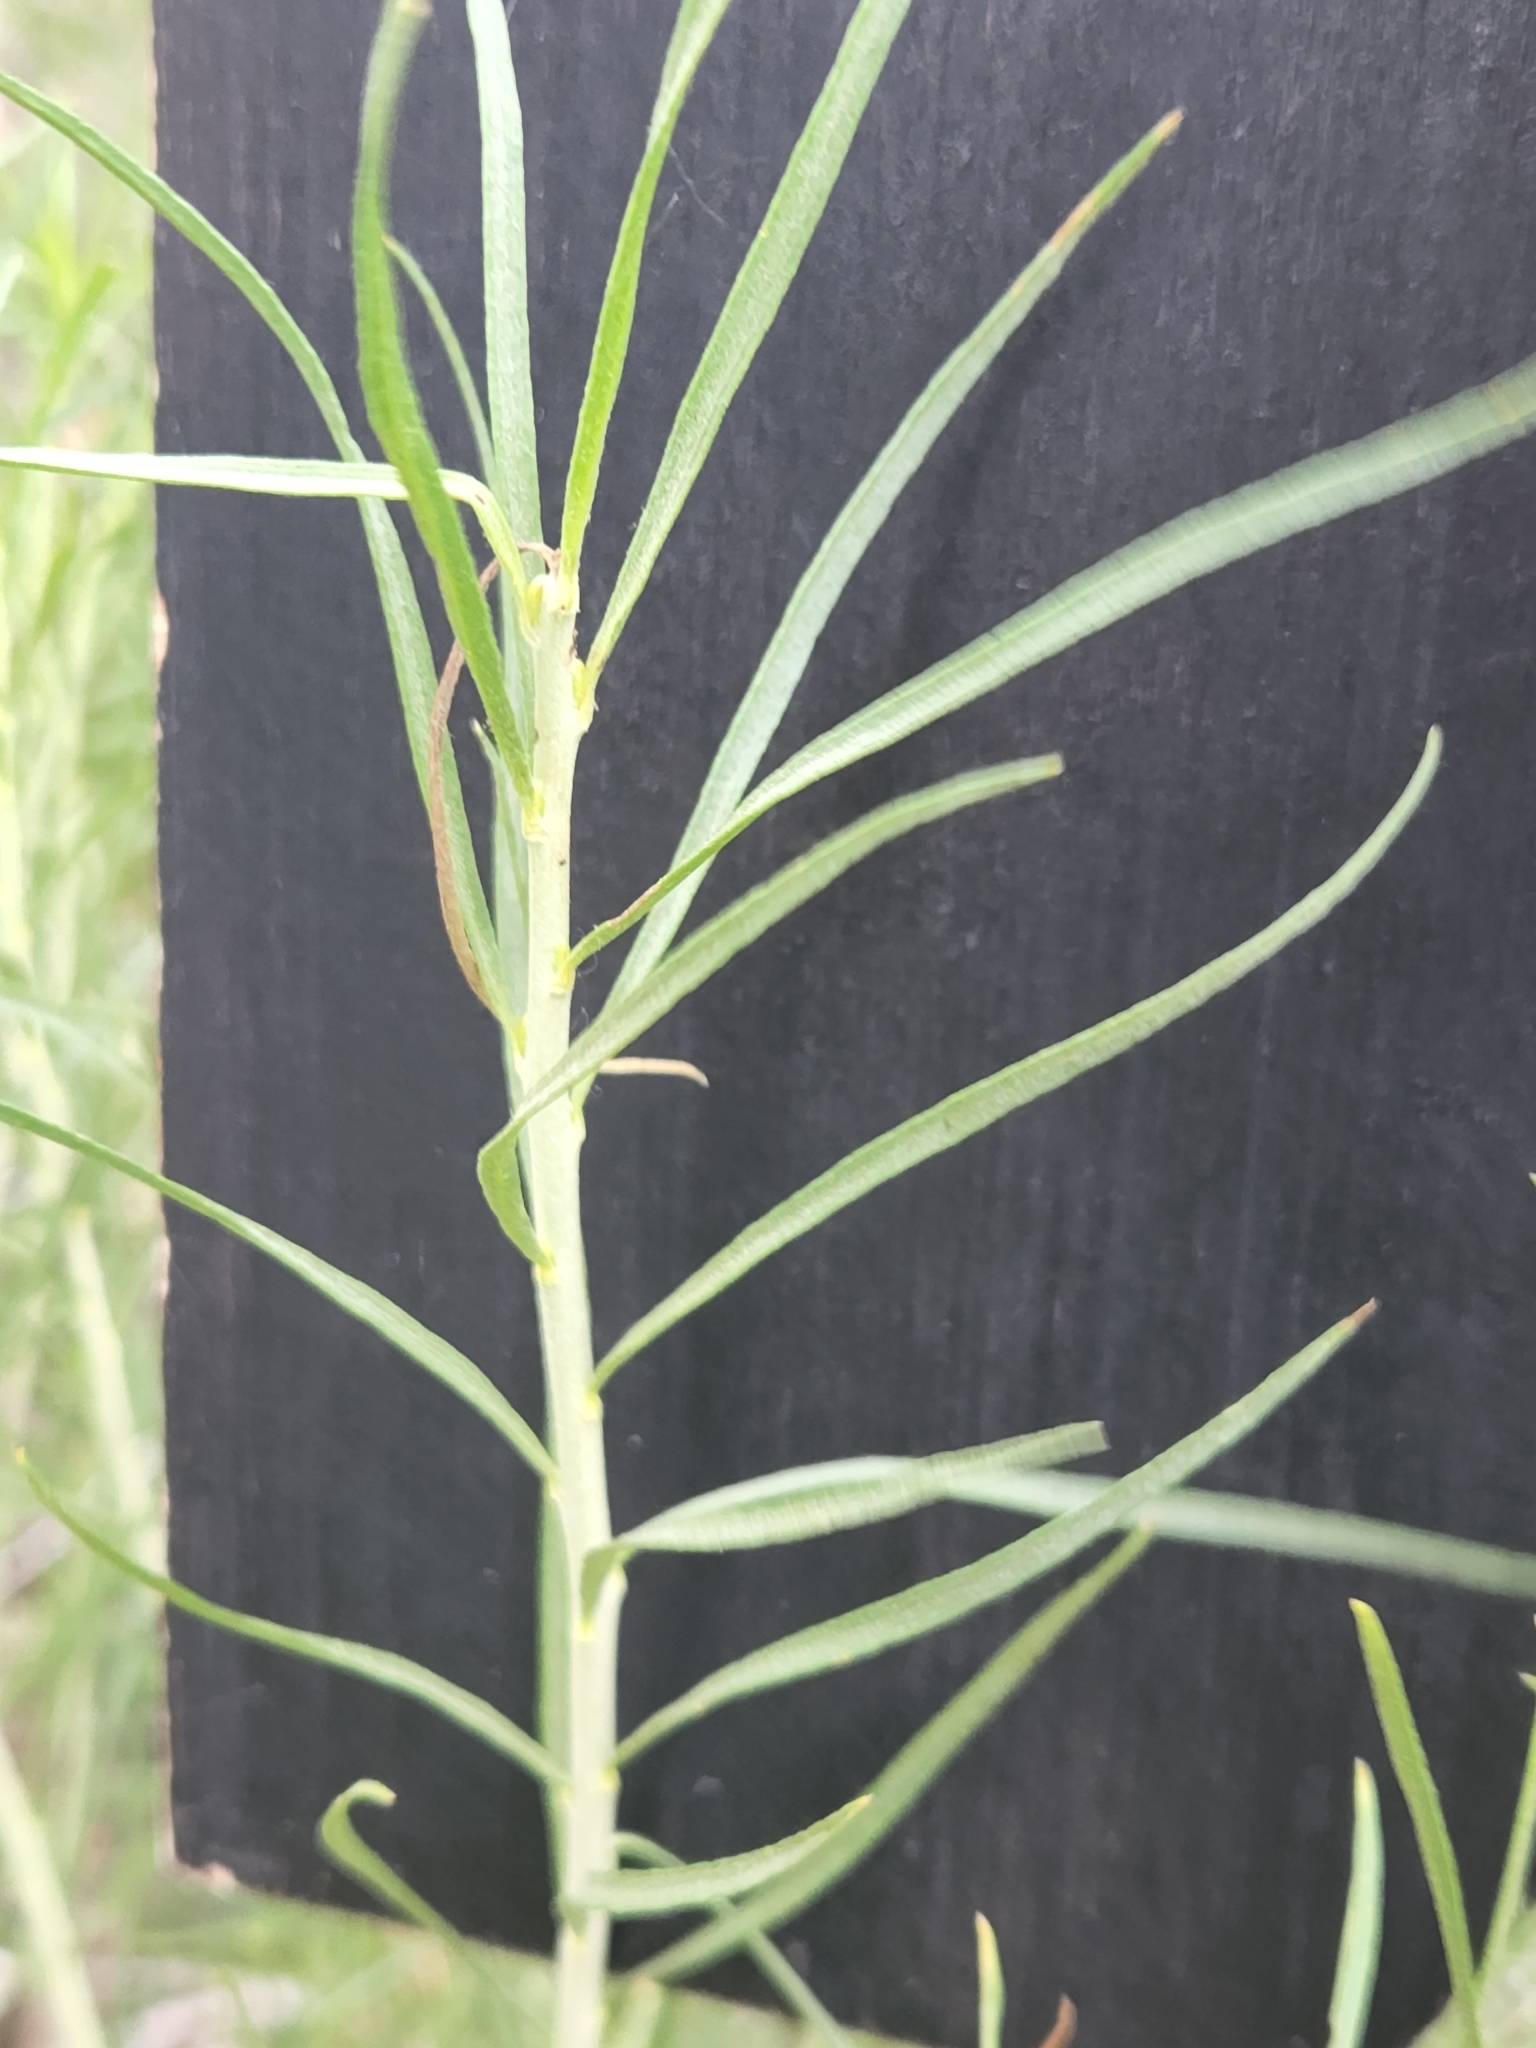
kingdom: Plantae
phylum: Tracheophyta
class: Magnoliopsida
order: Asterales
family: Asteraceae
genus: Ericameria
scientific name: Ericameria nauseosa
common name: Rubber rabbitbrush
